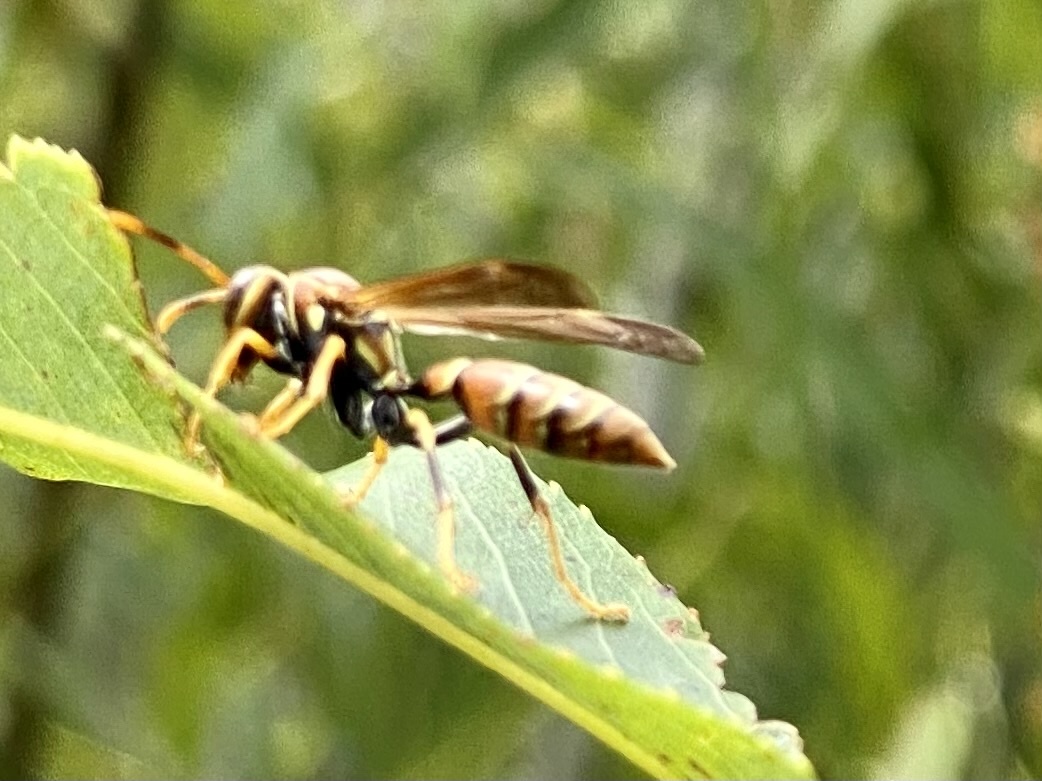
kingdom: Animalia
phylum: Arthropoda
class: Insecta
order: Hymenoptera
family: Eumenidae
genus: Polistes
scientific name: Polistes bahamensis
